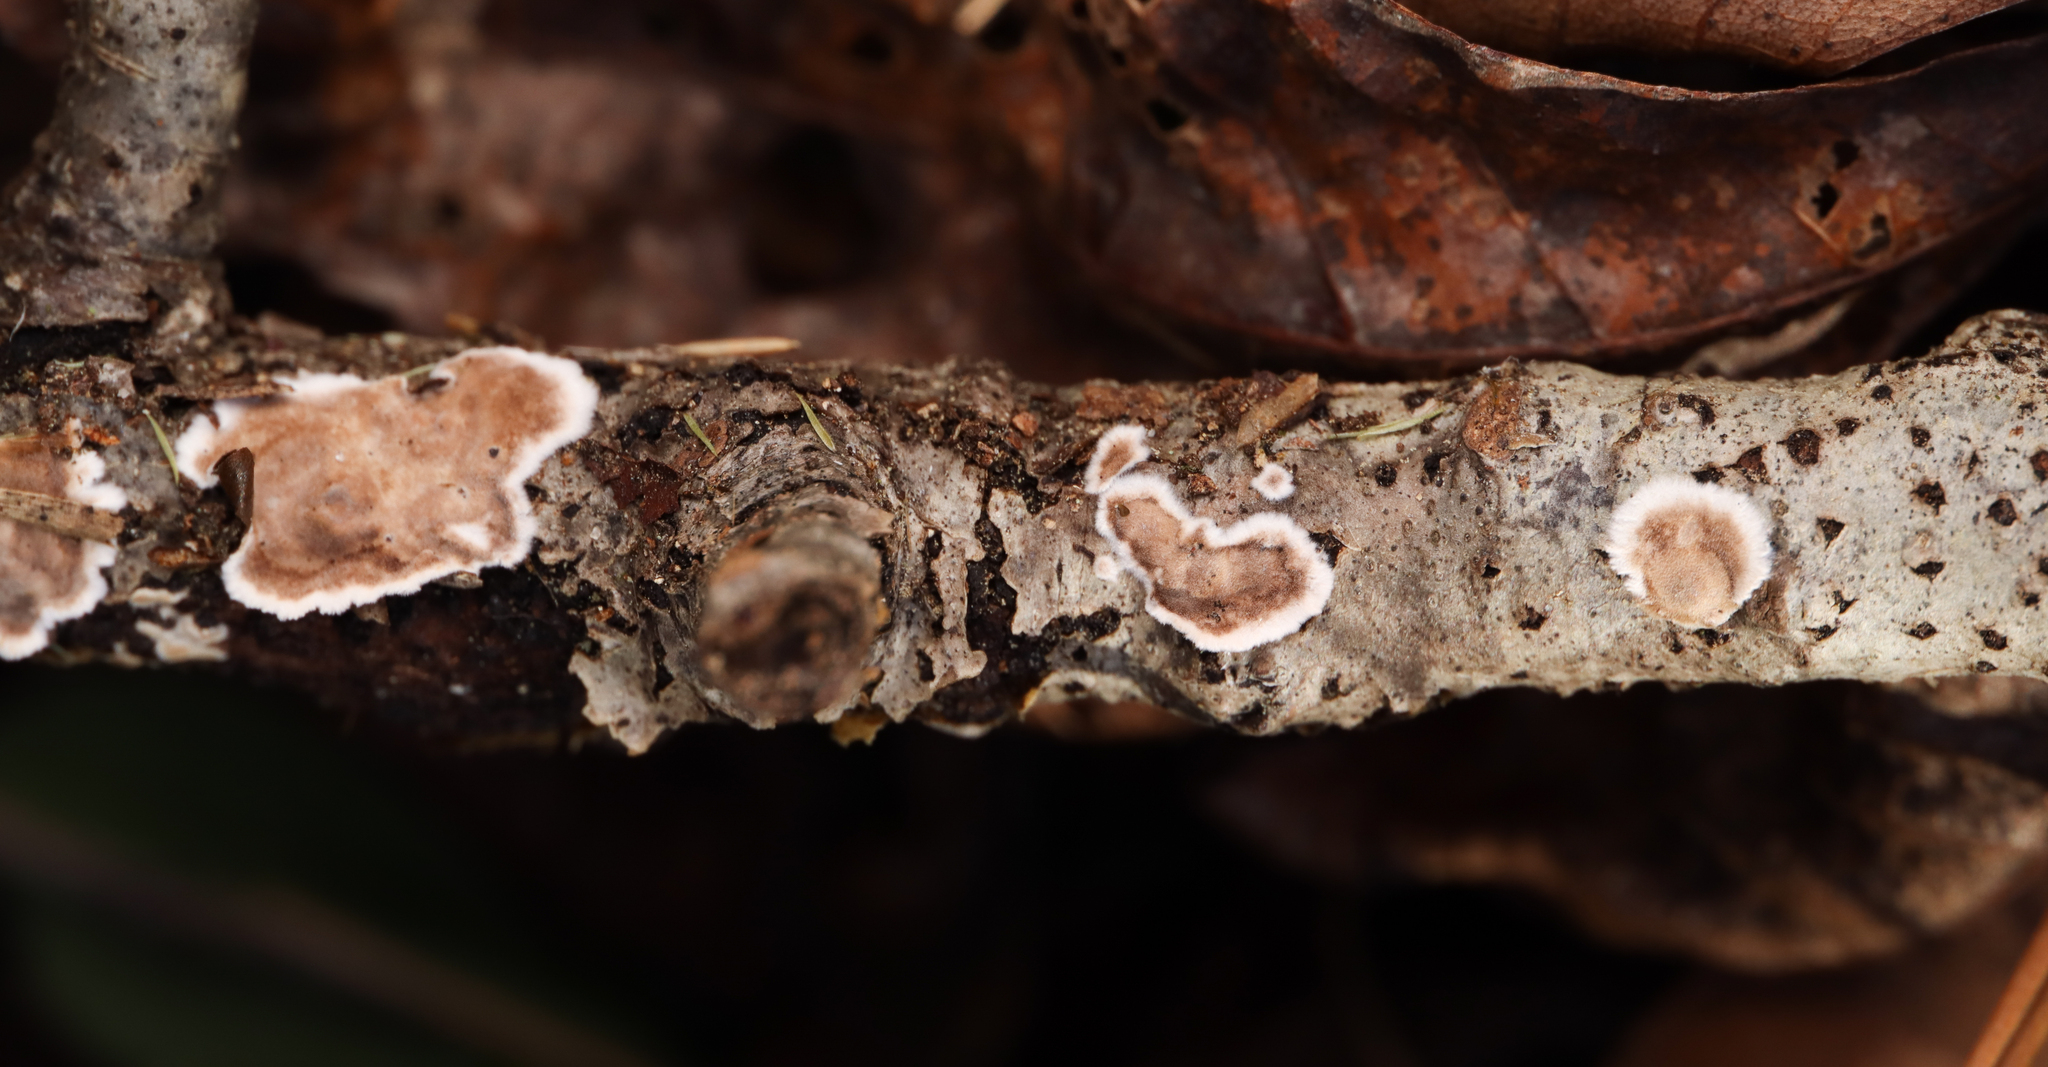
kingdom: Fungi
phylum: Basidiomycota
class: Agaricomycetes
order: Russulales
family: Peniophoraceae
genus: Peniophora
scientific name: Peniophora albobadia
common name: Giraffe spots
